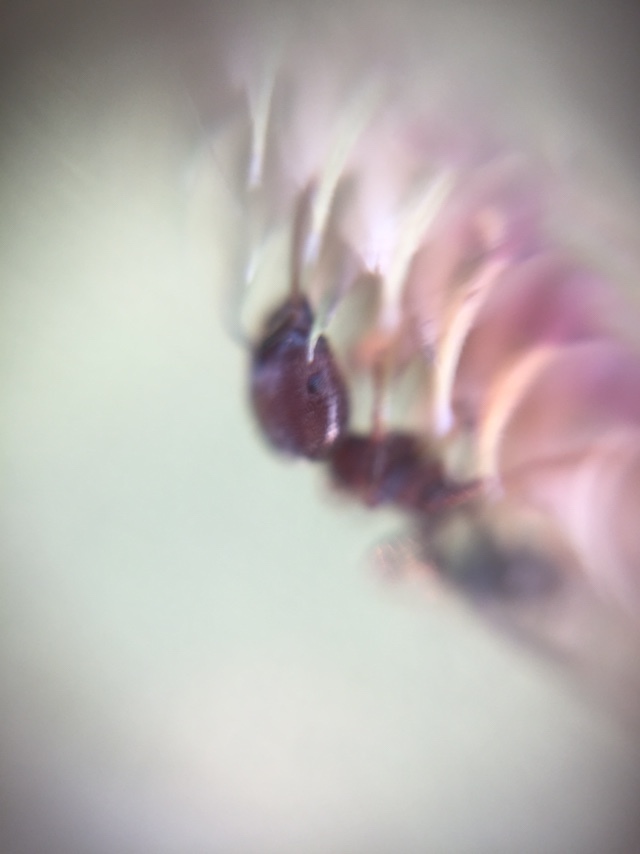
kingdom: Animalia
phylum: Arthropoda
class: Insecta
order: Hymenoptera
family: Formicidae
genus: Trichomyrmex
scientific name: Trichomyrmex
